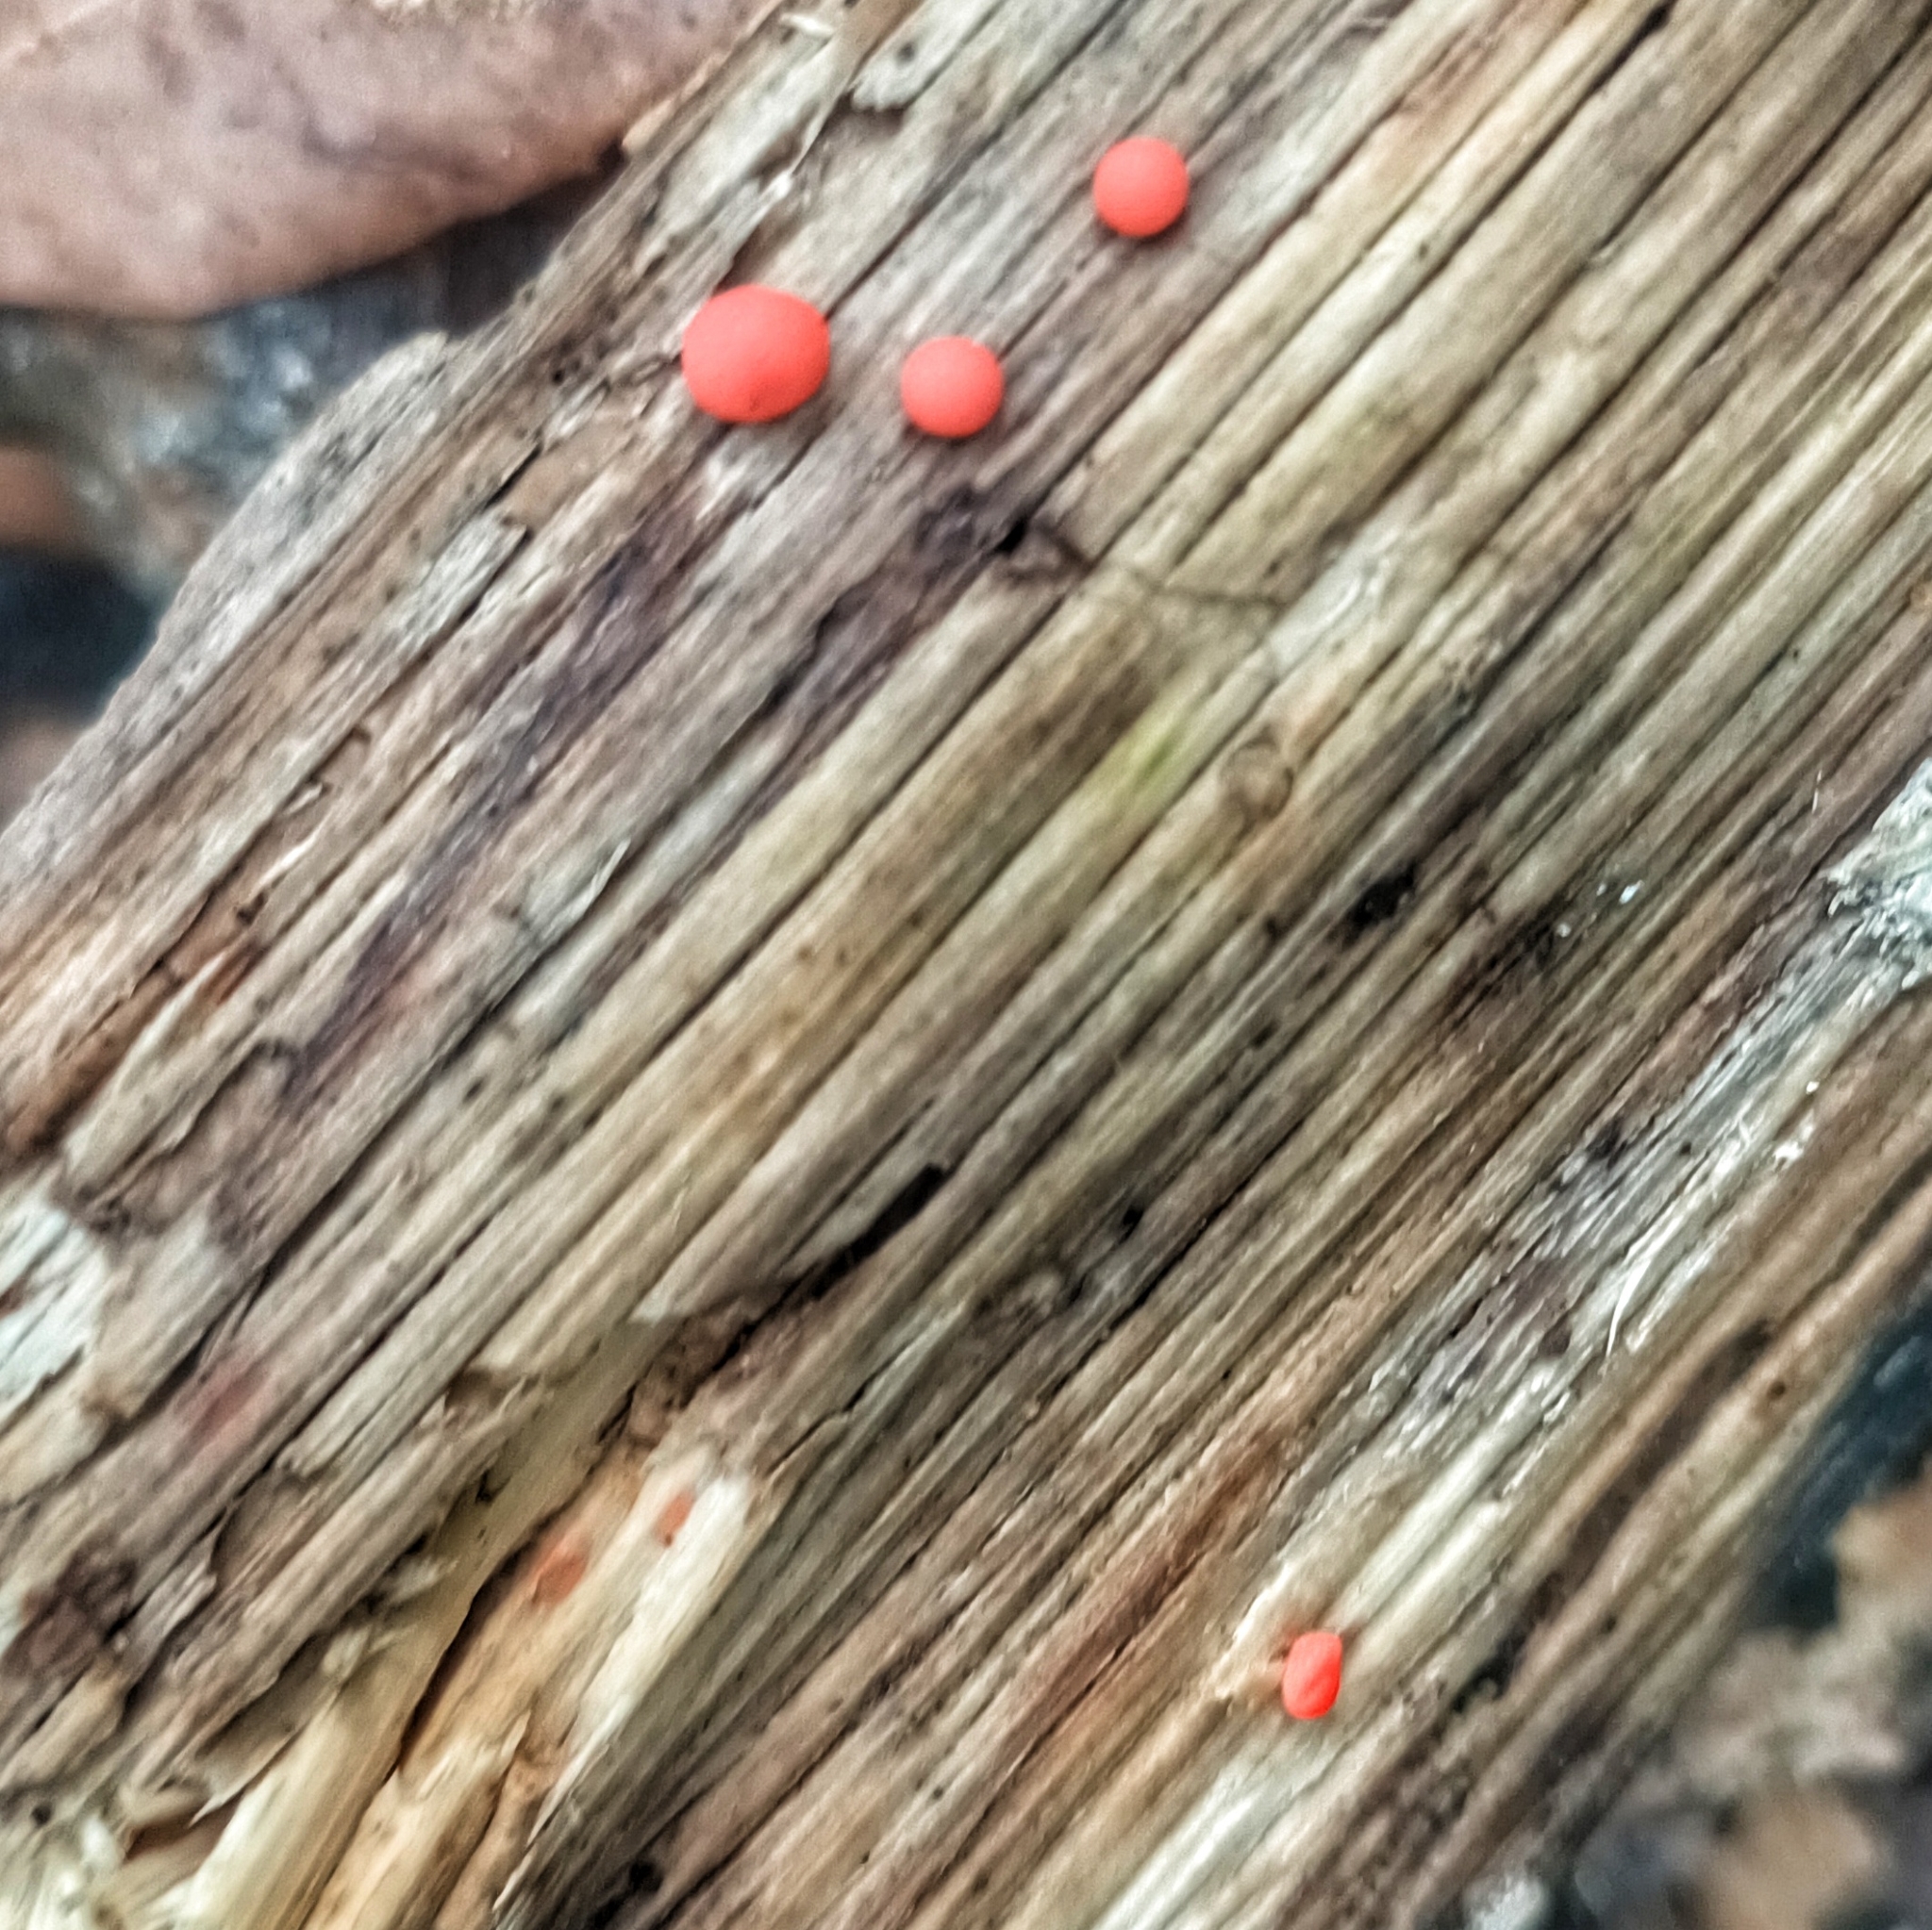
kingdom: Protozoa
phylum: Mycetozoa
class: Myxomycetes
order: Cribrariales
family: Tubiferaceae
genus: Lycogala
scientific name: Lycogala epidendrum
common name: Wolf's milk
